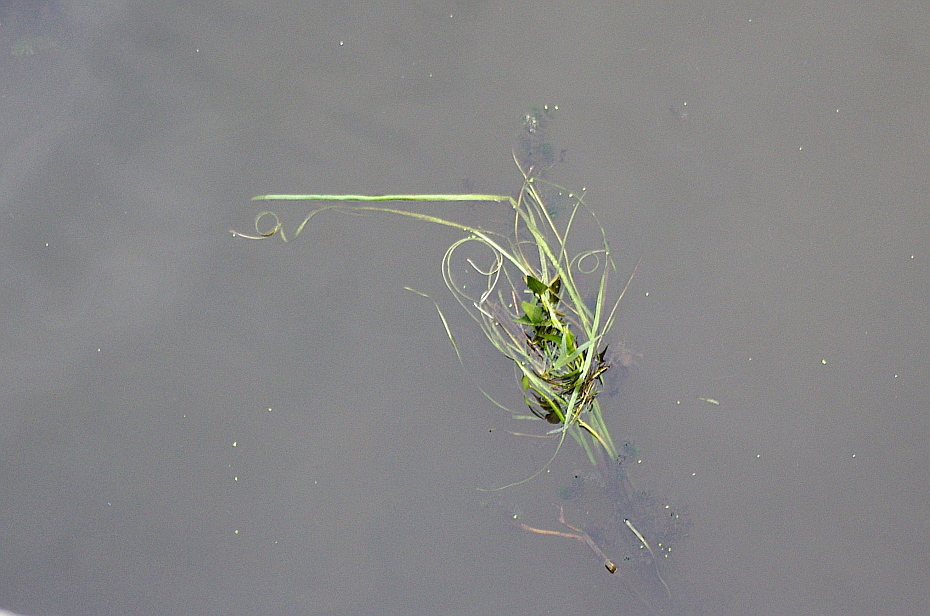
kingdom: Plantae
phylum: Tracheophyta
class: Liliopsida
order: Alismatales
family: Alismataceae
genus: Sagittaria
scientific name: Sagittaria sagittifolia
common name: Arrowhead
